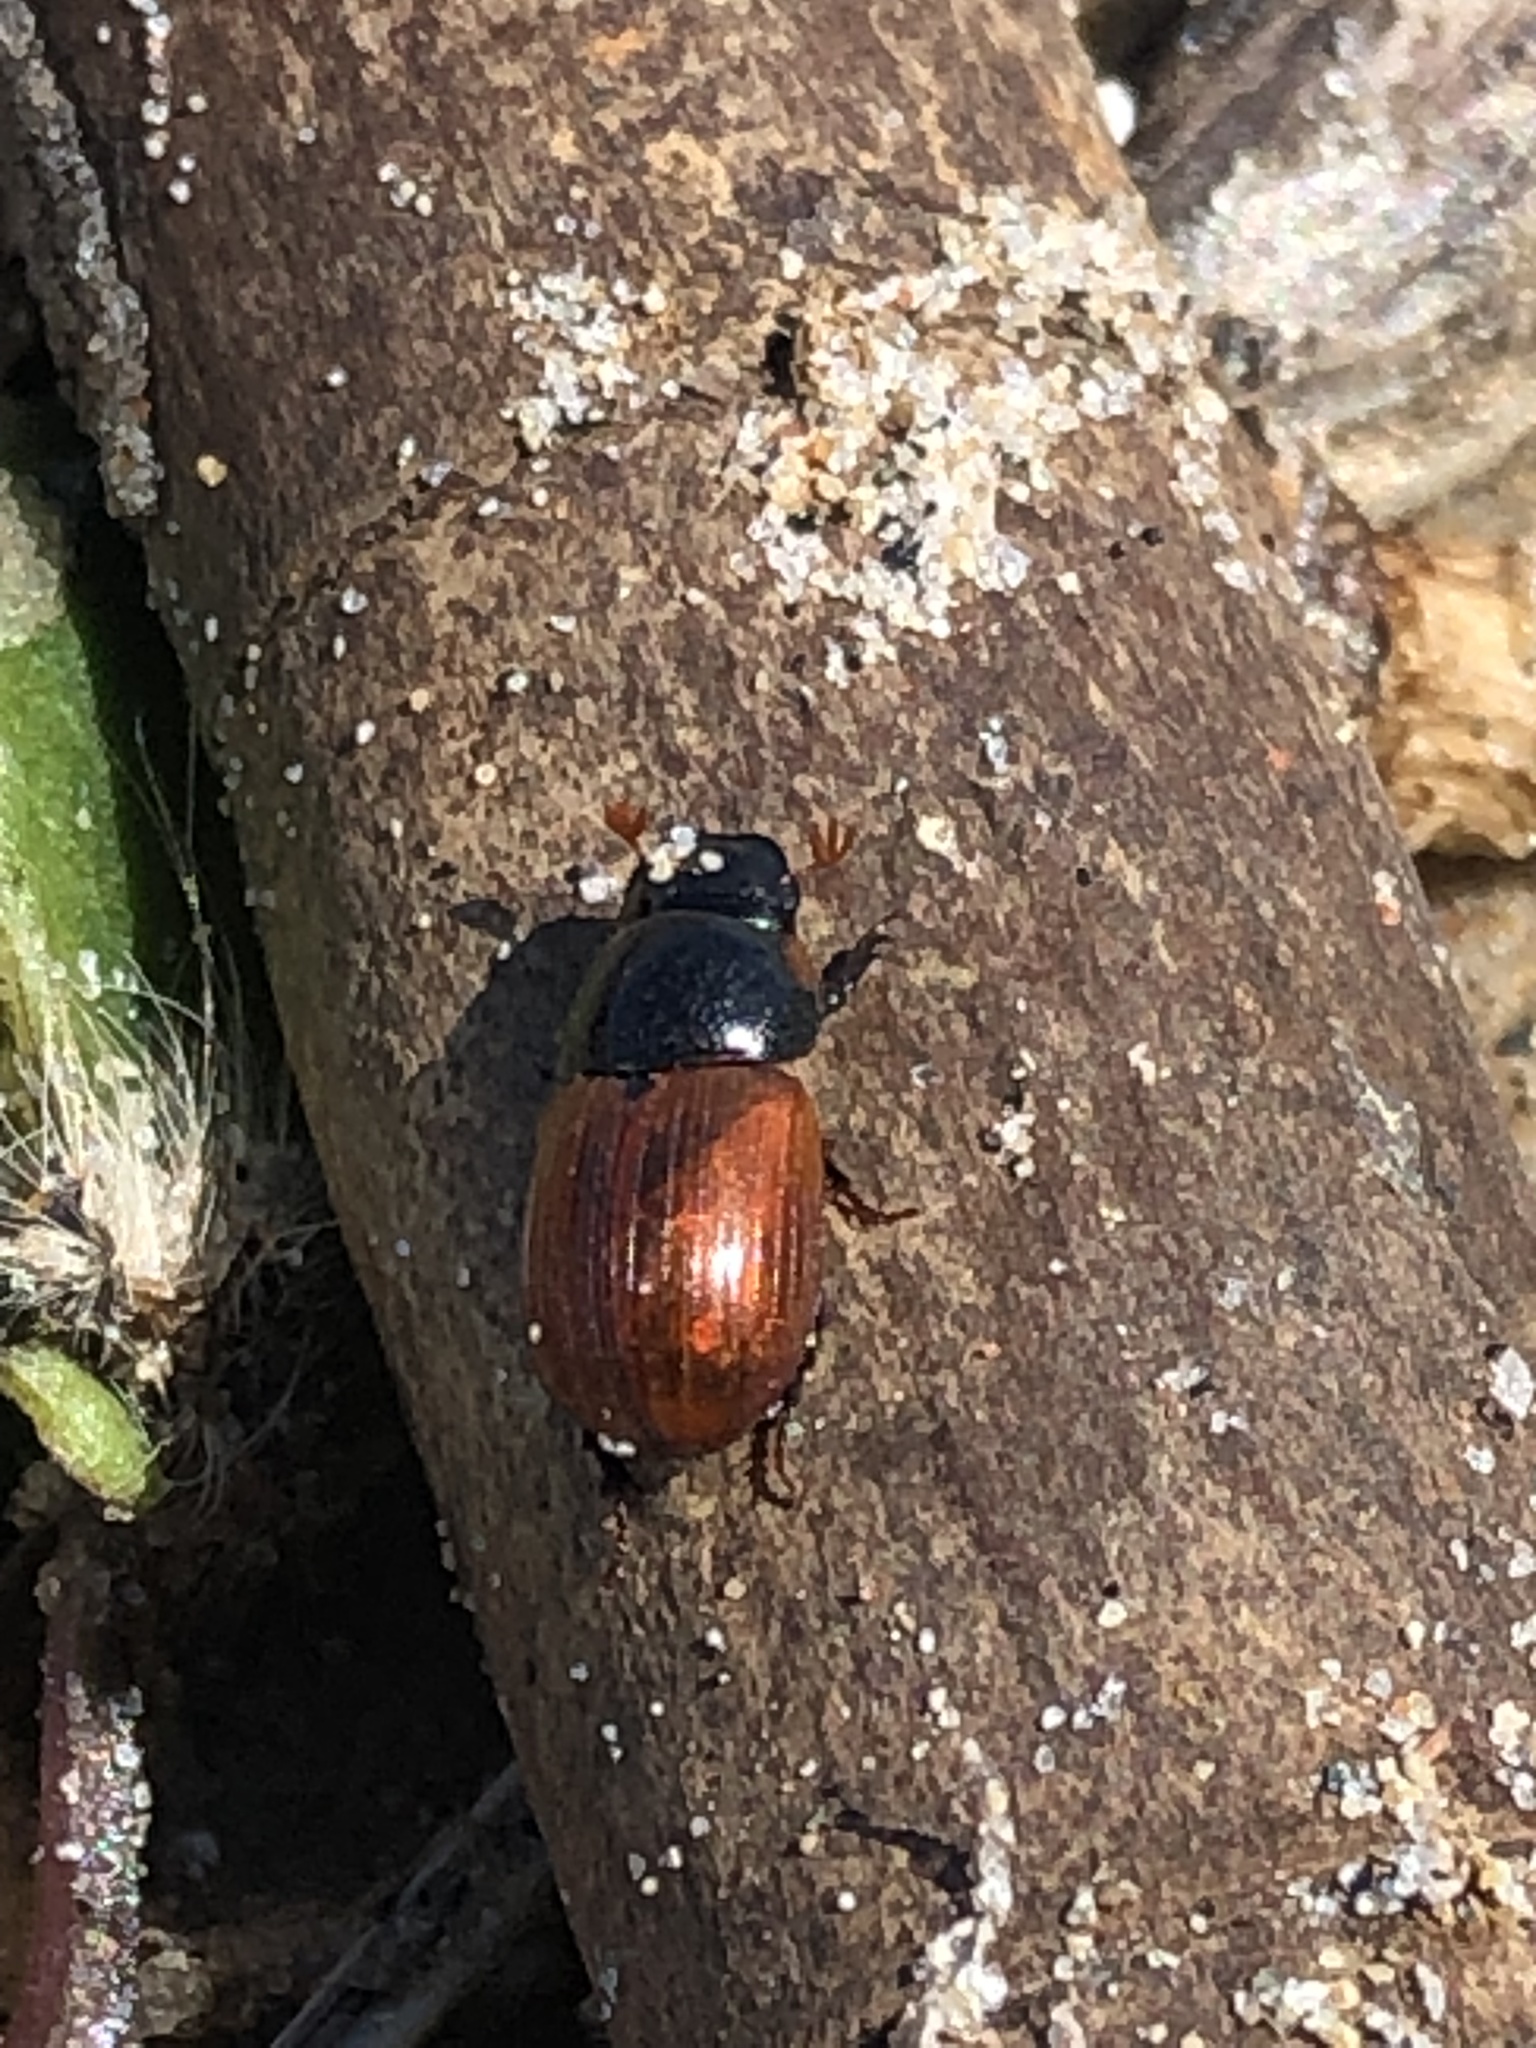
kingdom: Animalia
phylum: Arthropoda
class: Insecta
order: Coleoptera
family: Scarabaeidae
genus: Aphodius
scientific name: Aphodius pedellus
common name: Common dung beetle
